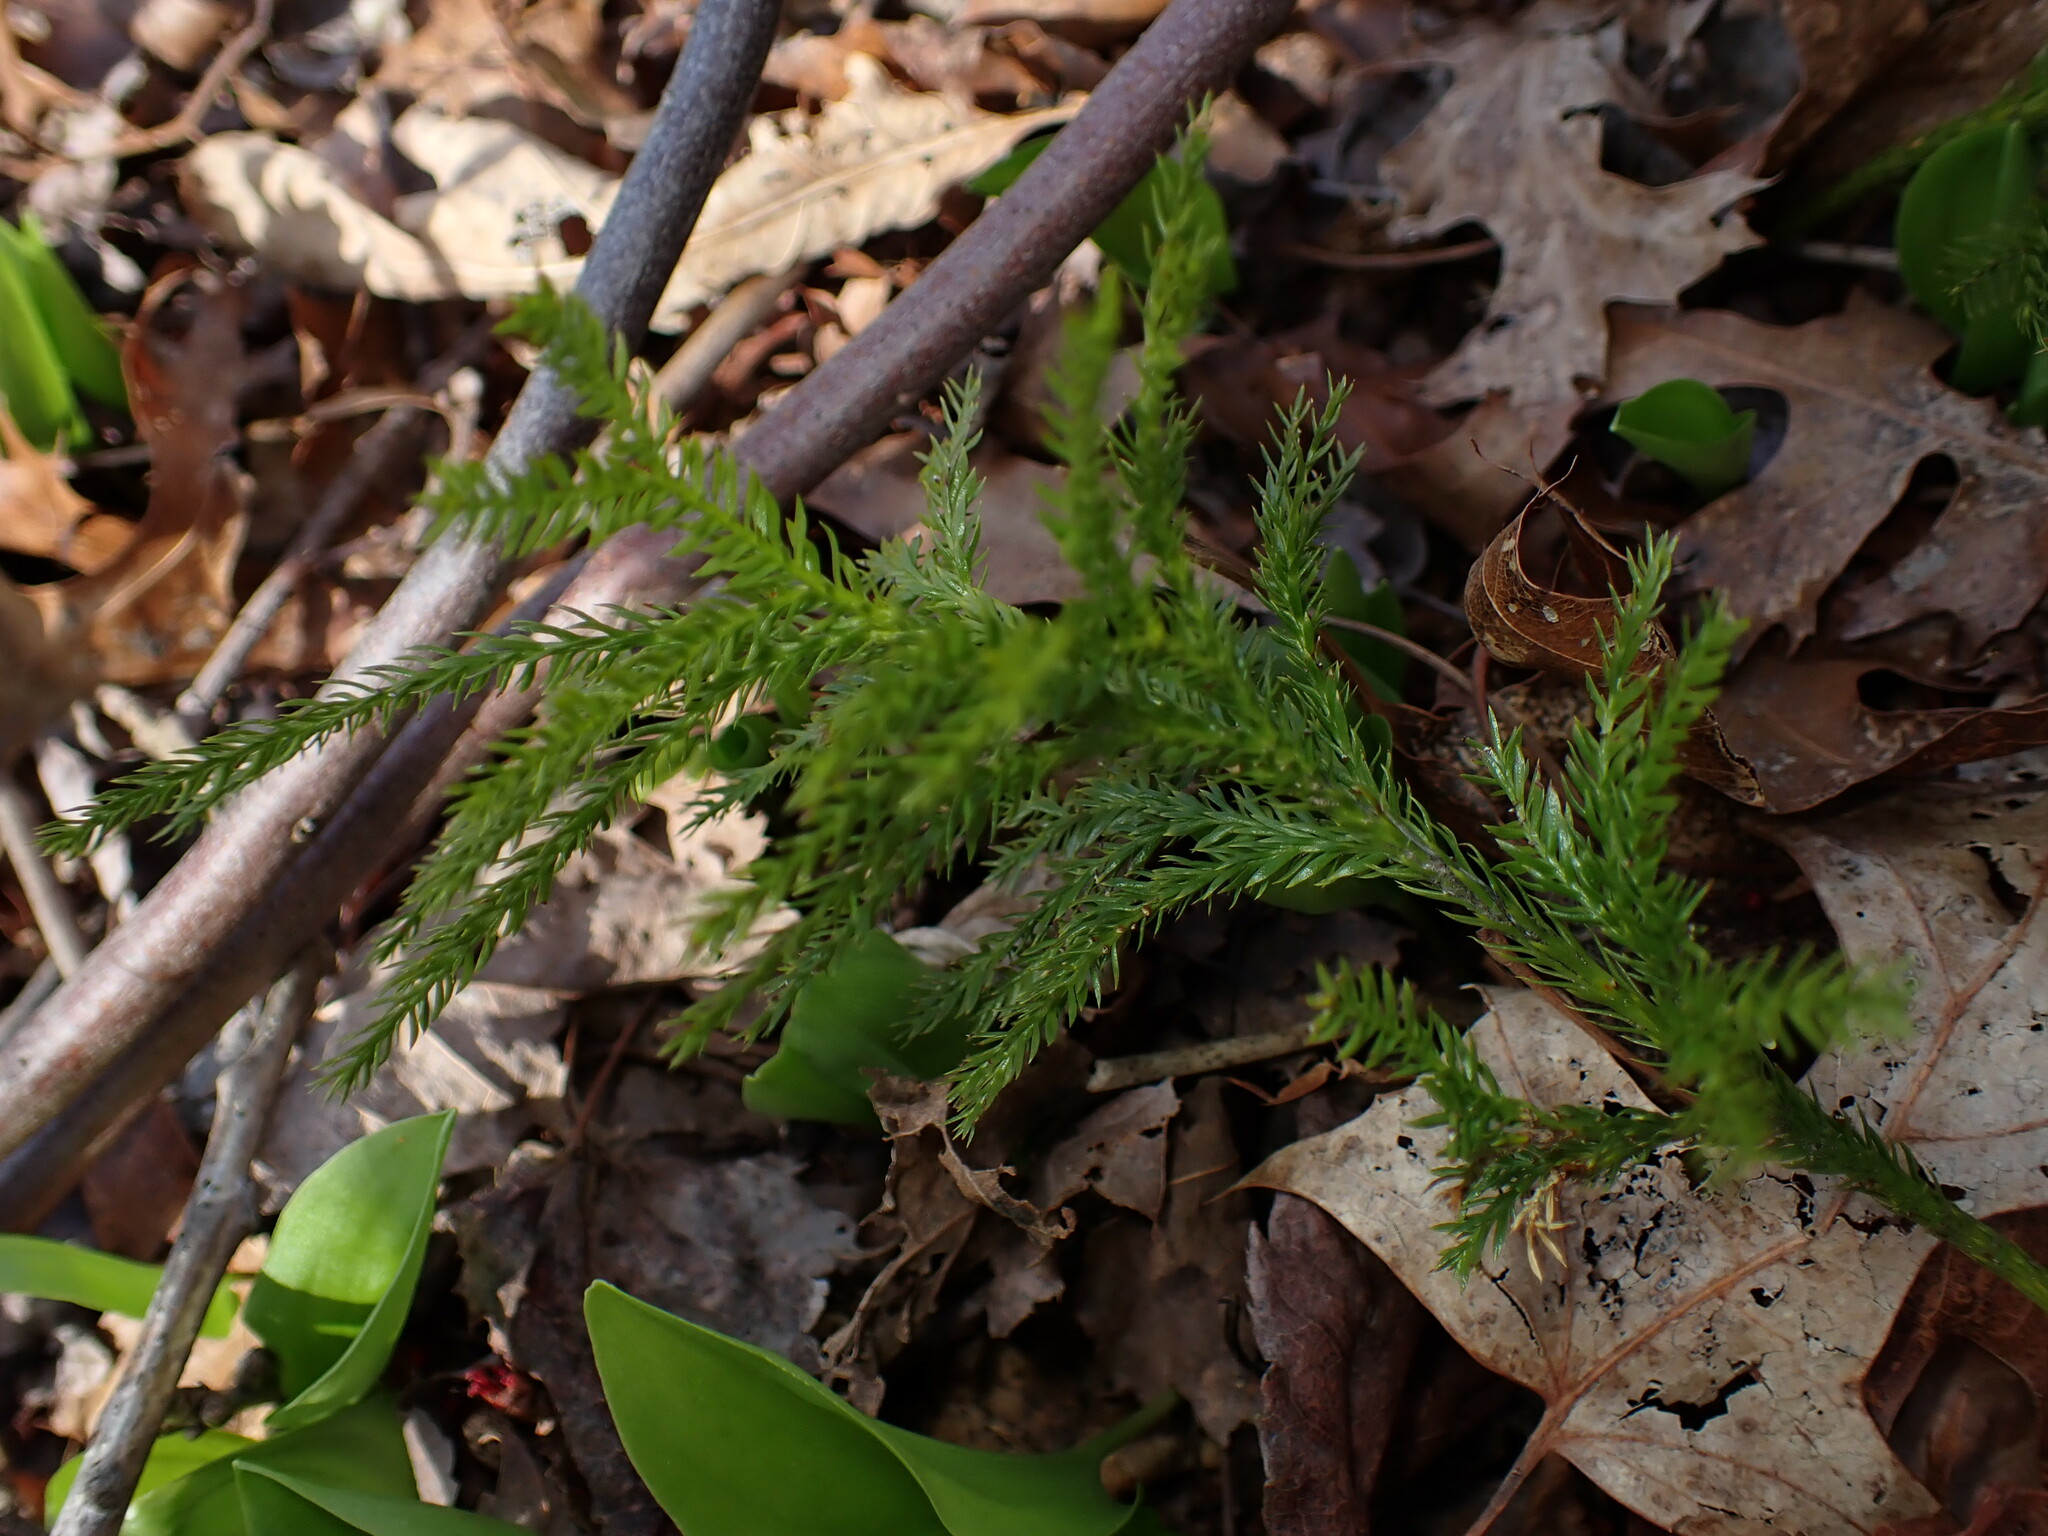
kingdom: Plantae
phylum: Tracheophyta
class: Lycopodiopsida
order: Lycopodiales
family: Lycopodiaceae
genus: Dendrolycopodium
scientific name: Dendrolycopodium obscurum
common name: Common ground-pine
